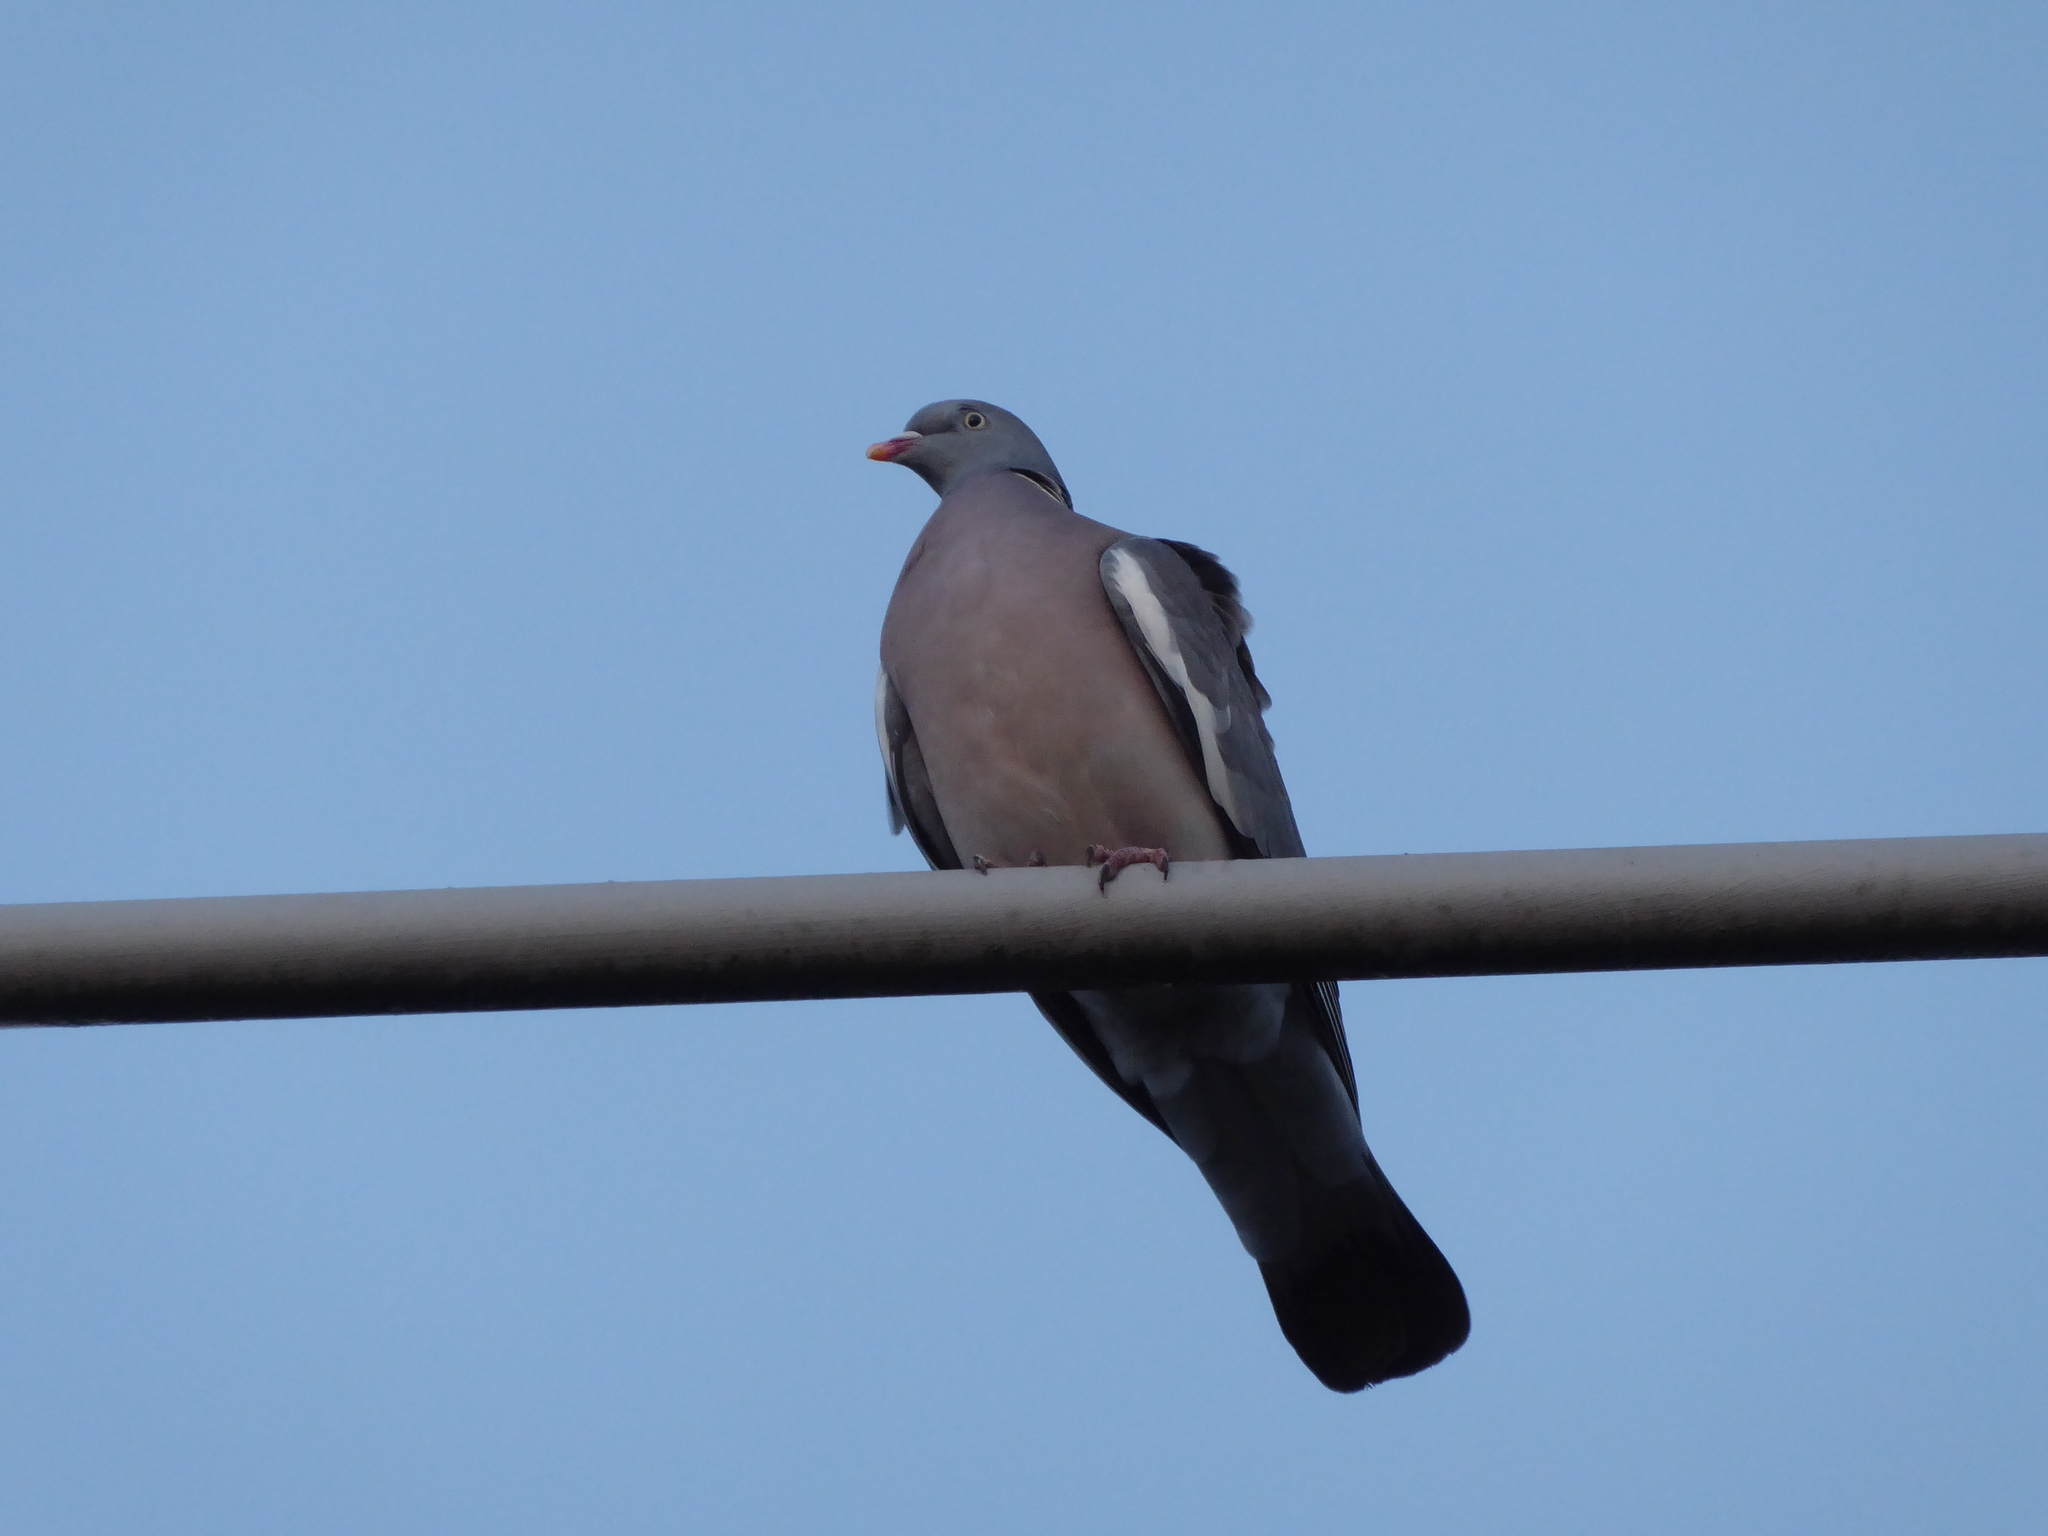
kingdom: Animalia
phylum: Chordata
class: Aves
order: Columbiformes
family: Columbidae
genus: Columba
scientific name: Columba palumbus
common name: Common wood pigeon
